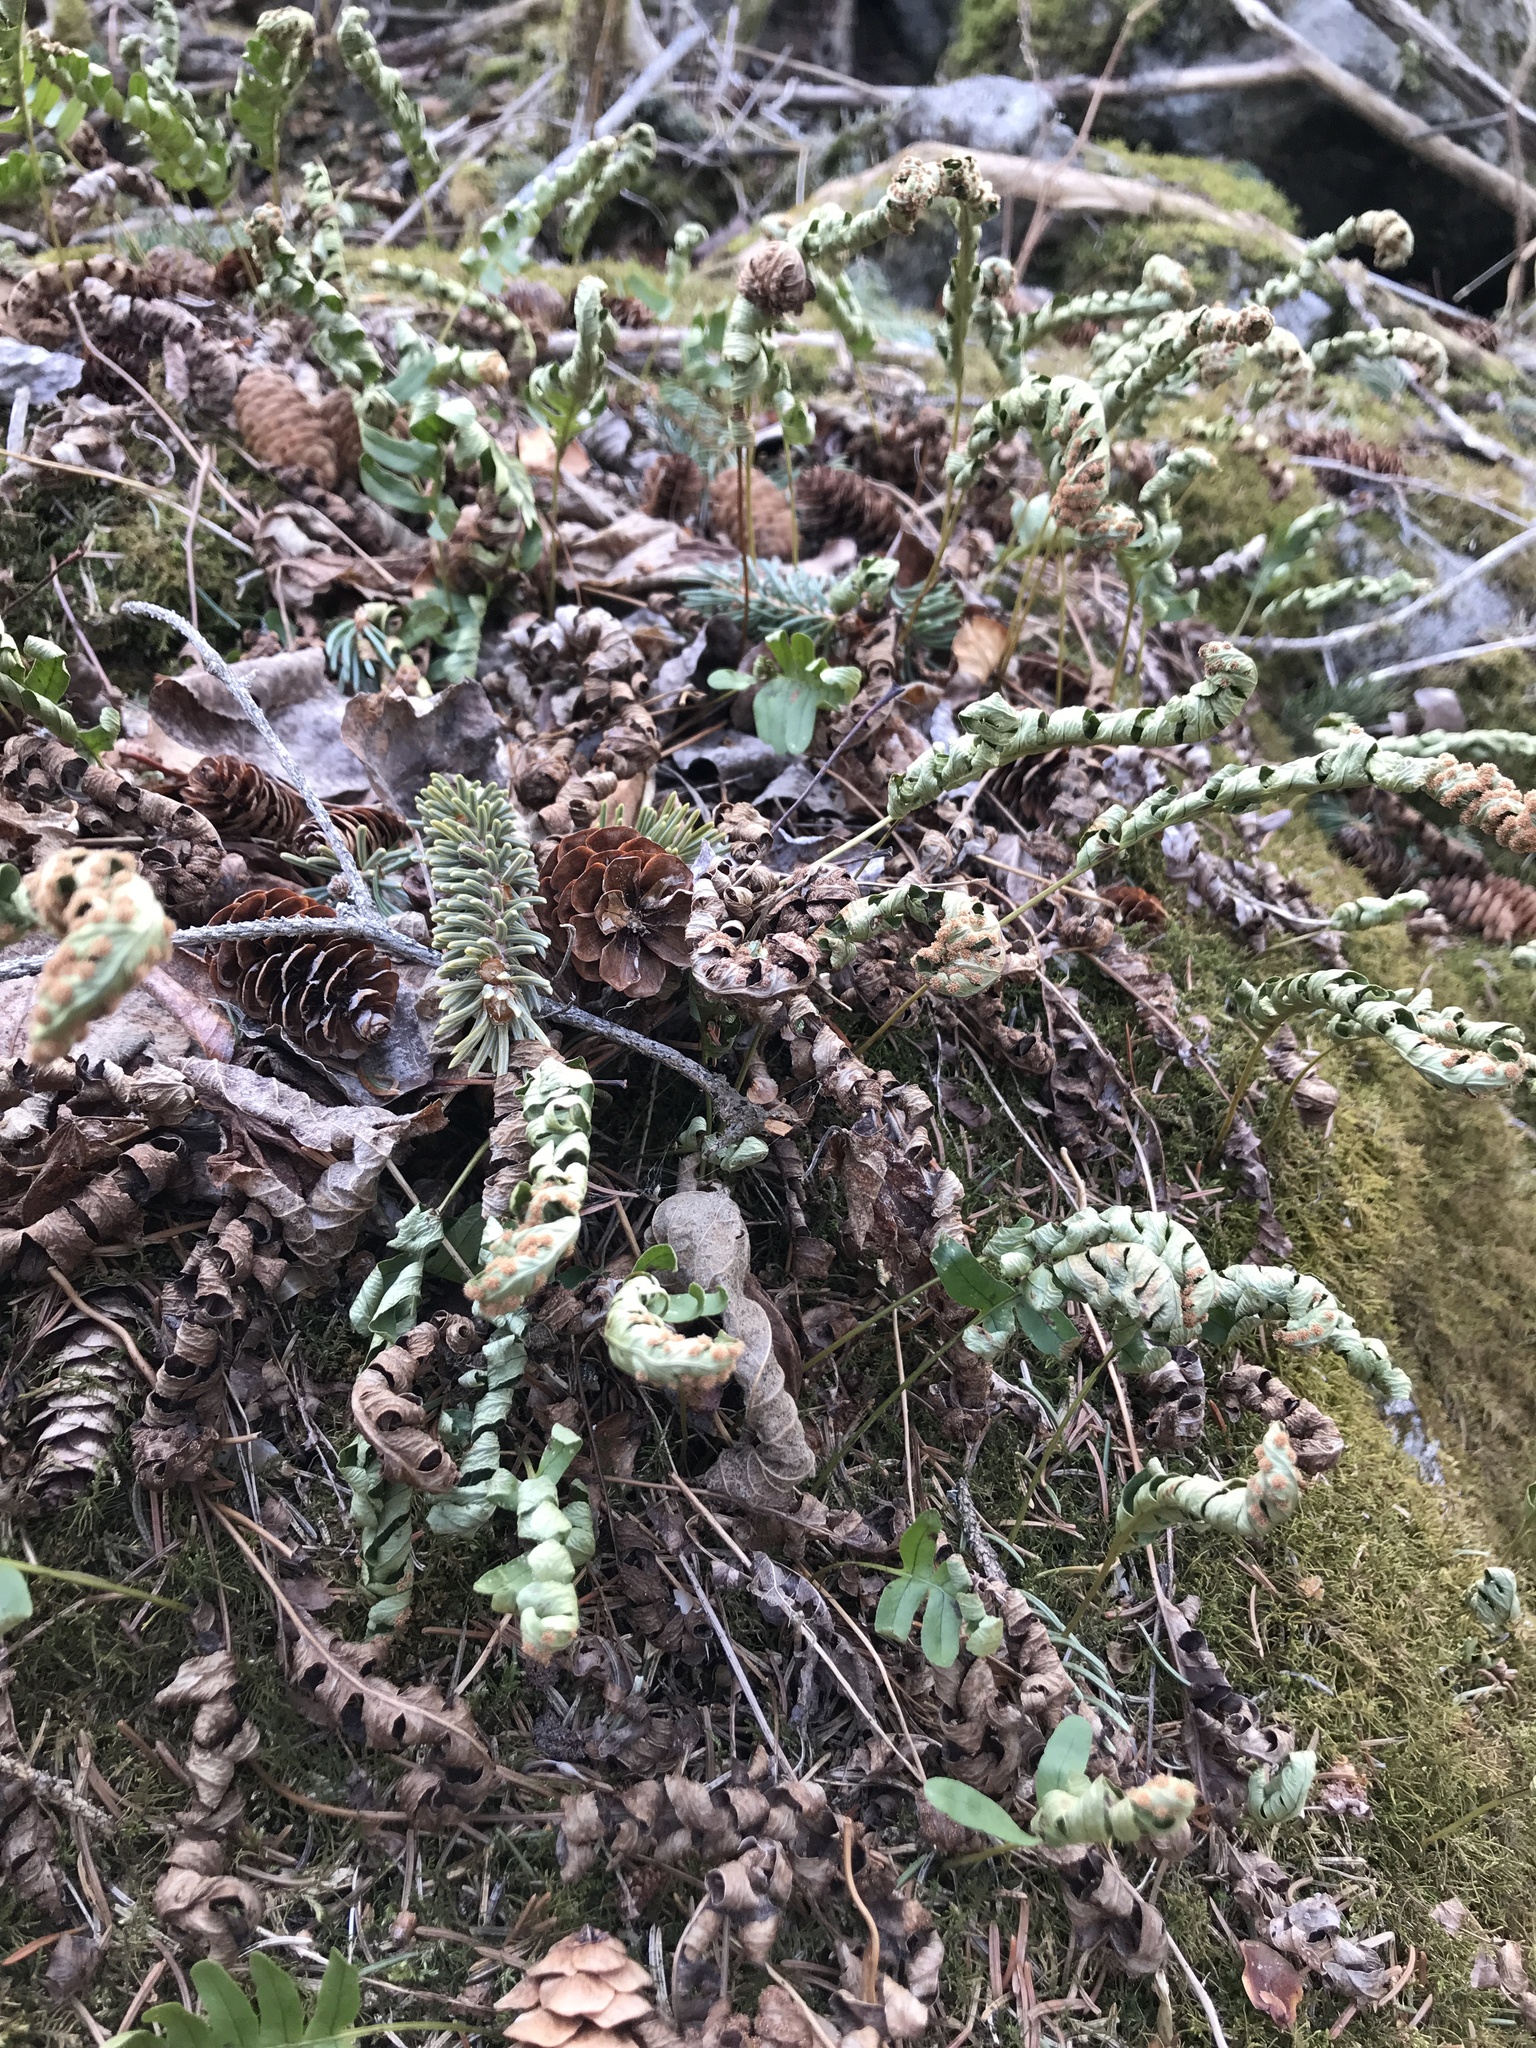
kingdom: Plantae
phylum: Tracheophyta
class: Polypodiopsida
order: Polypodiales
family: Polypodiaceae
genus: Polypodium
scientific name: Polypodium virginianum
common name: American wall fern
